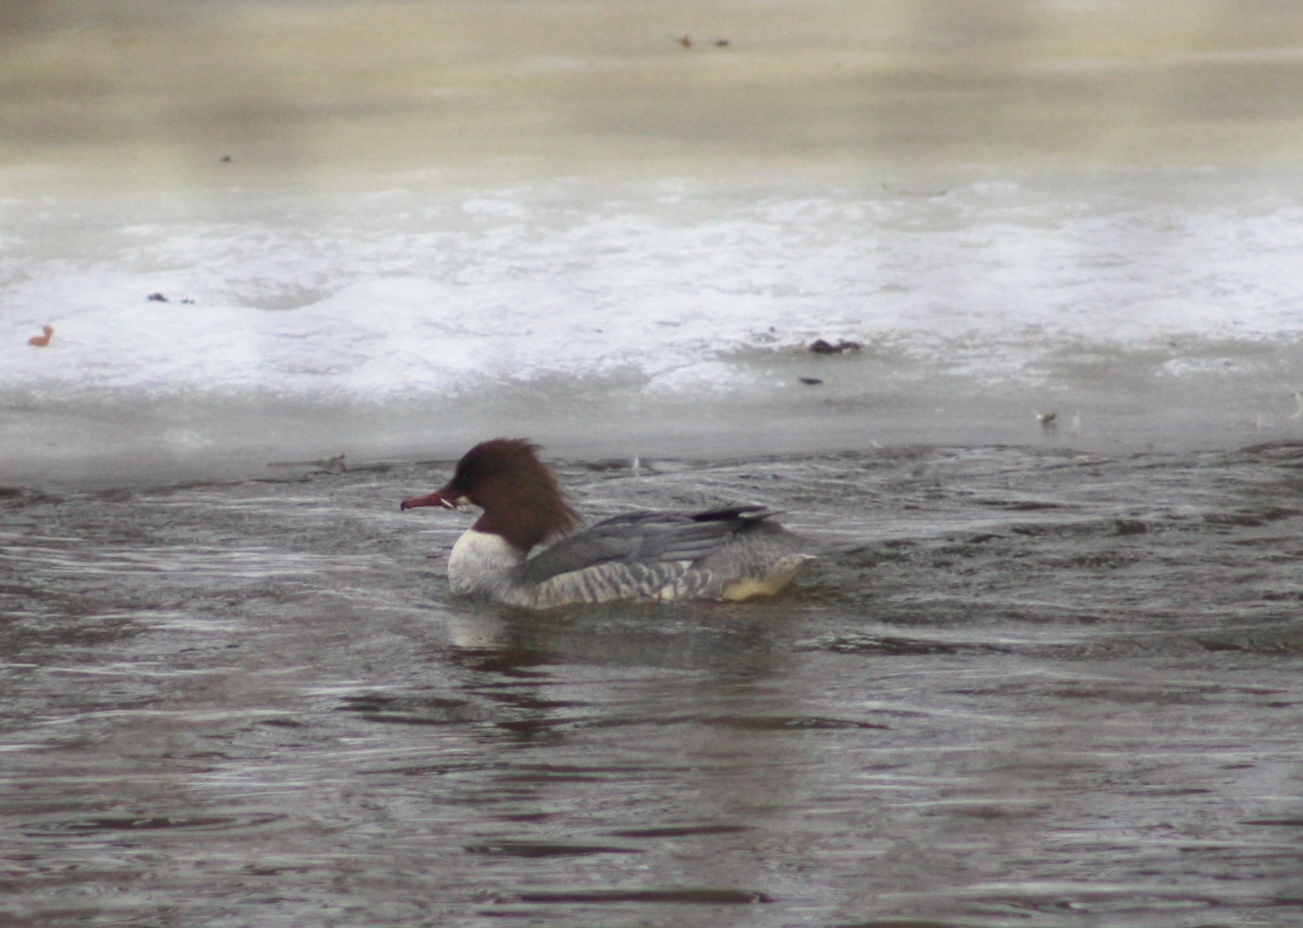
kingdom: Animalia
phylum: Chordata
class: Aves
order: Anseriformes
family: Anatidae
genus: Mergus
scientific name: Mergus merganser
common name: Common merganser
